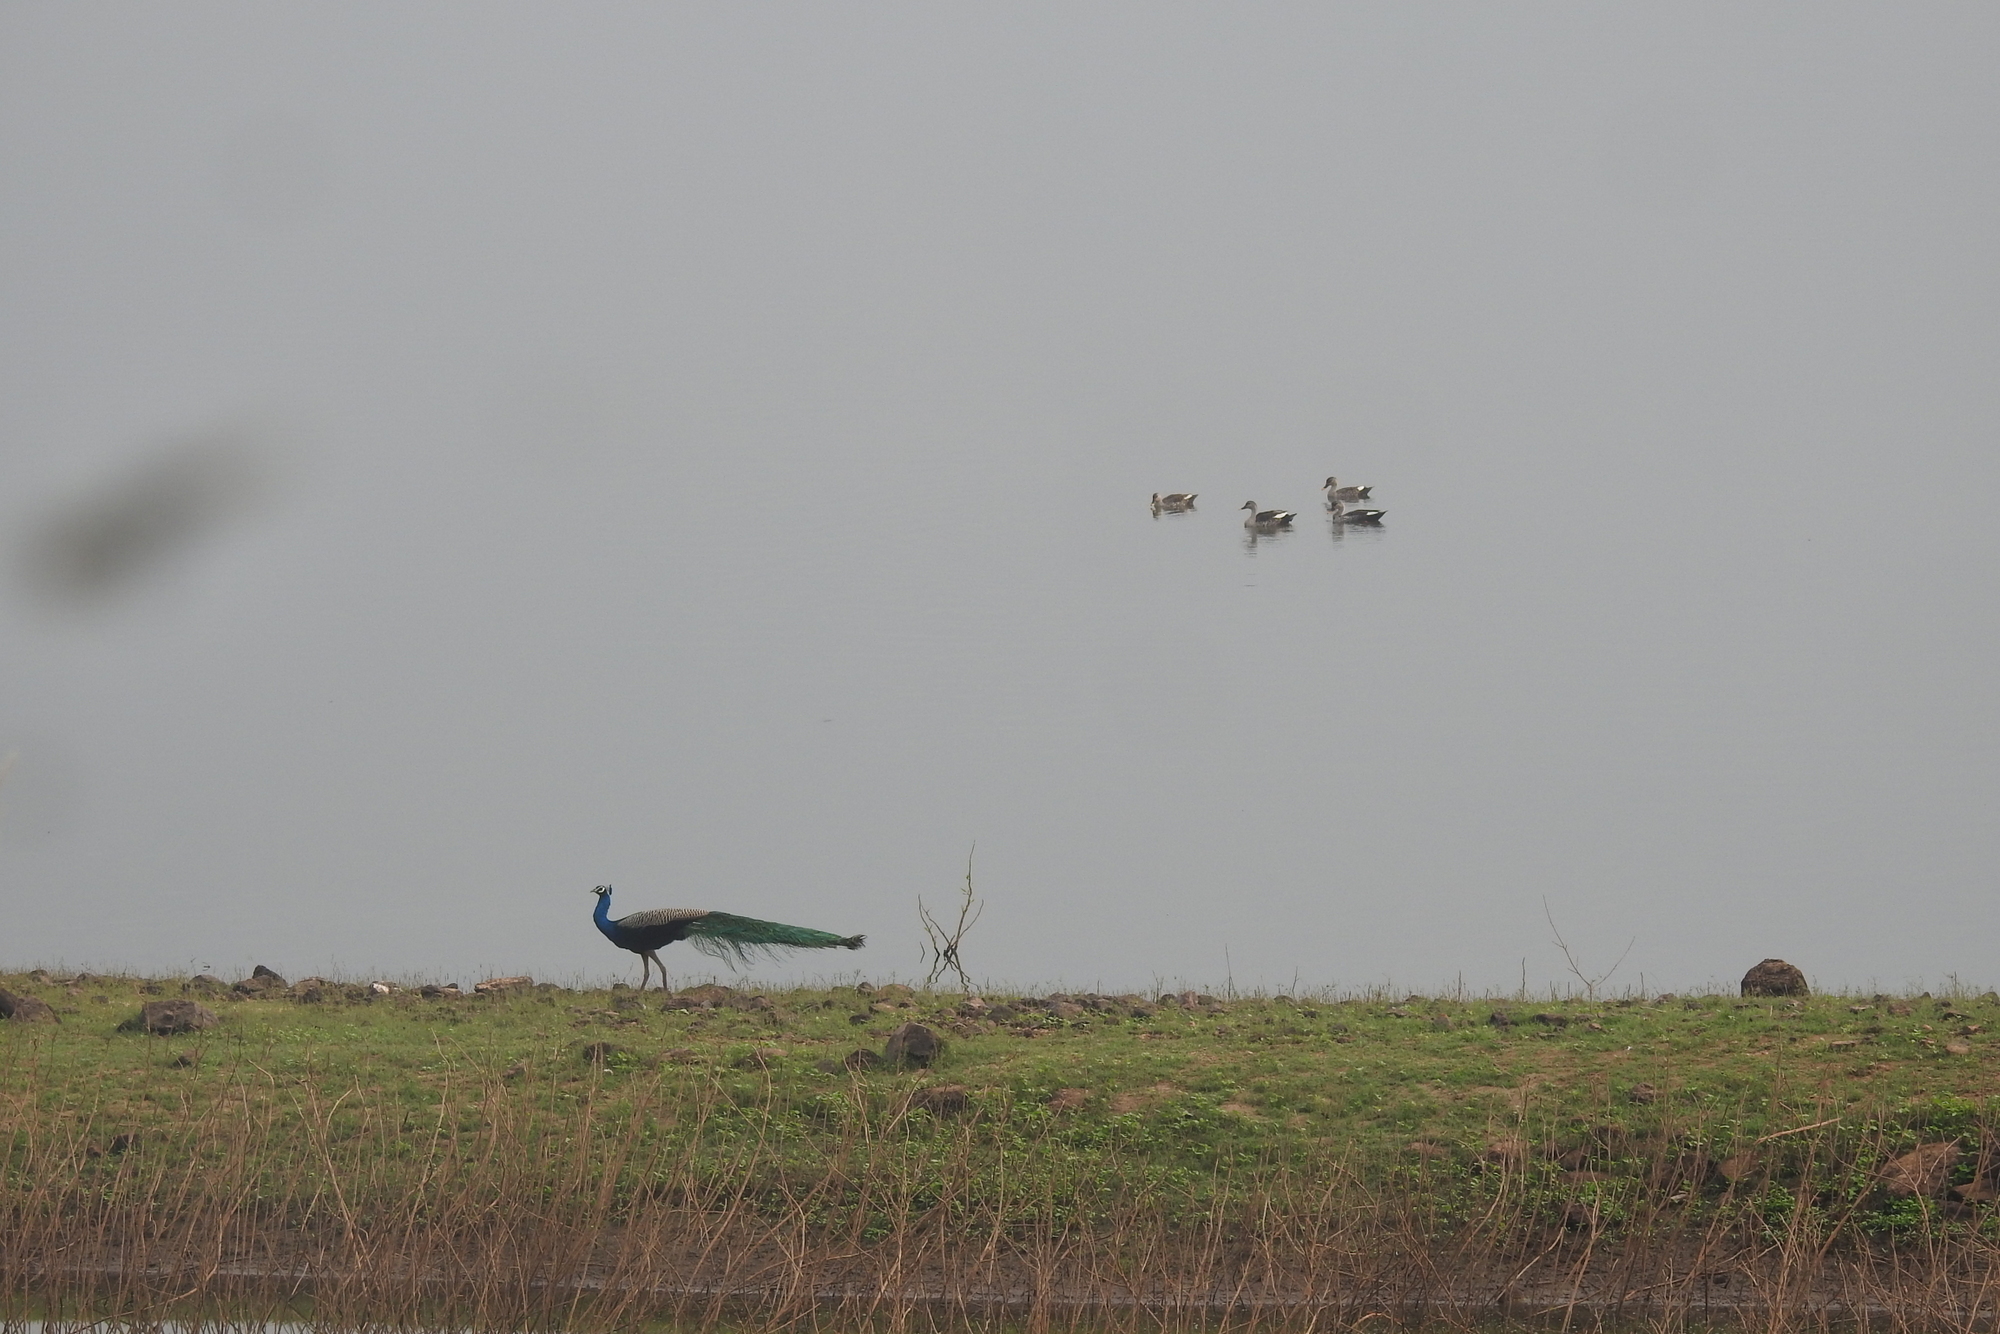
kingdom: Animalia
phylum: Chordata
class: Aves
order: Galliformes
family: Phasianidae
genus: Pavo
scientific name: Pavo cristatus
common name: Indian peafowl
